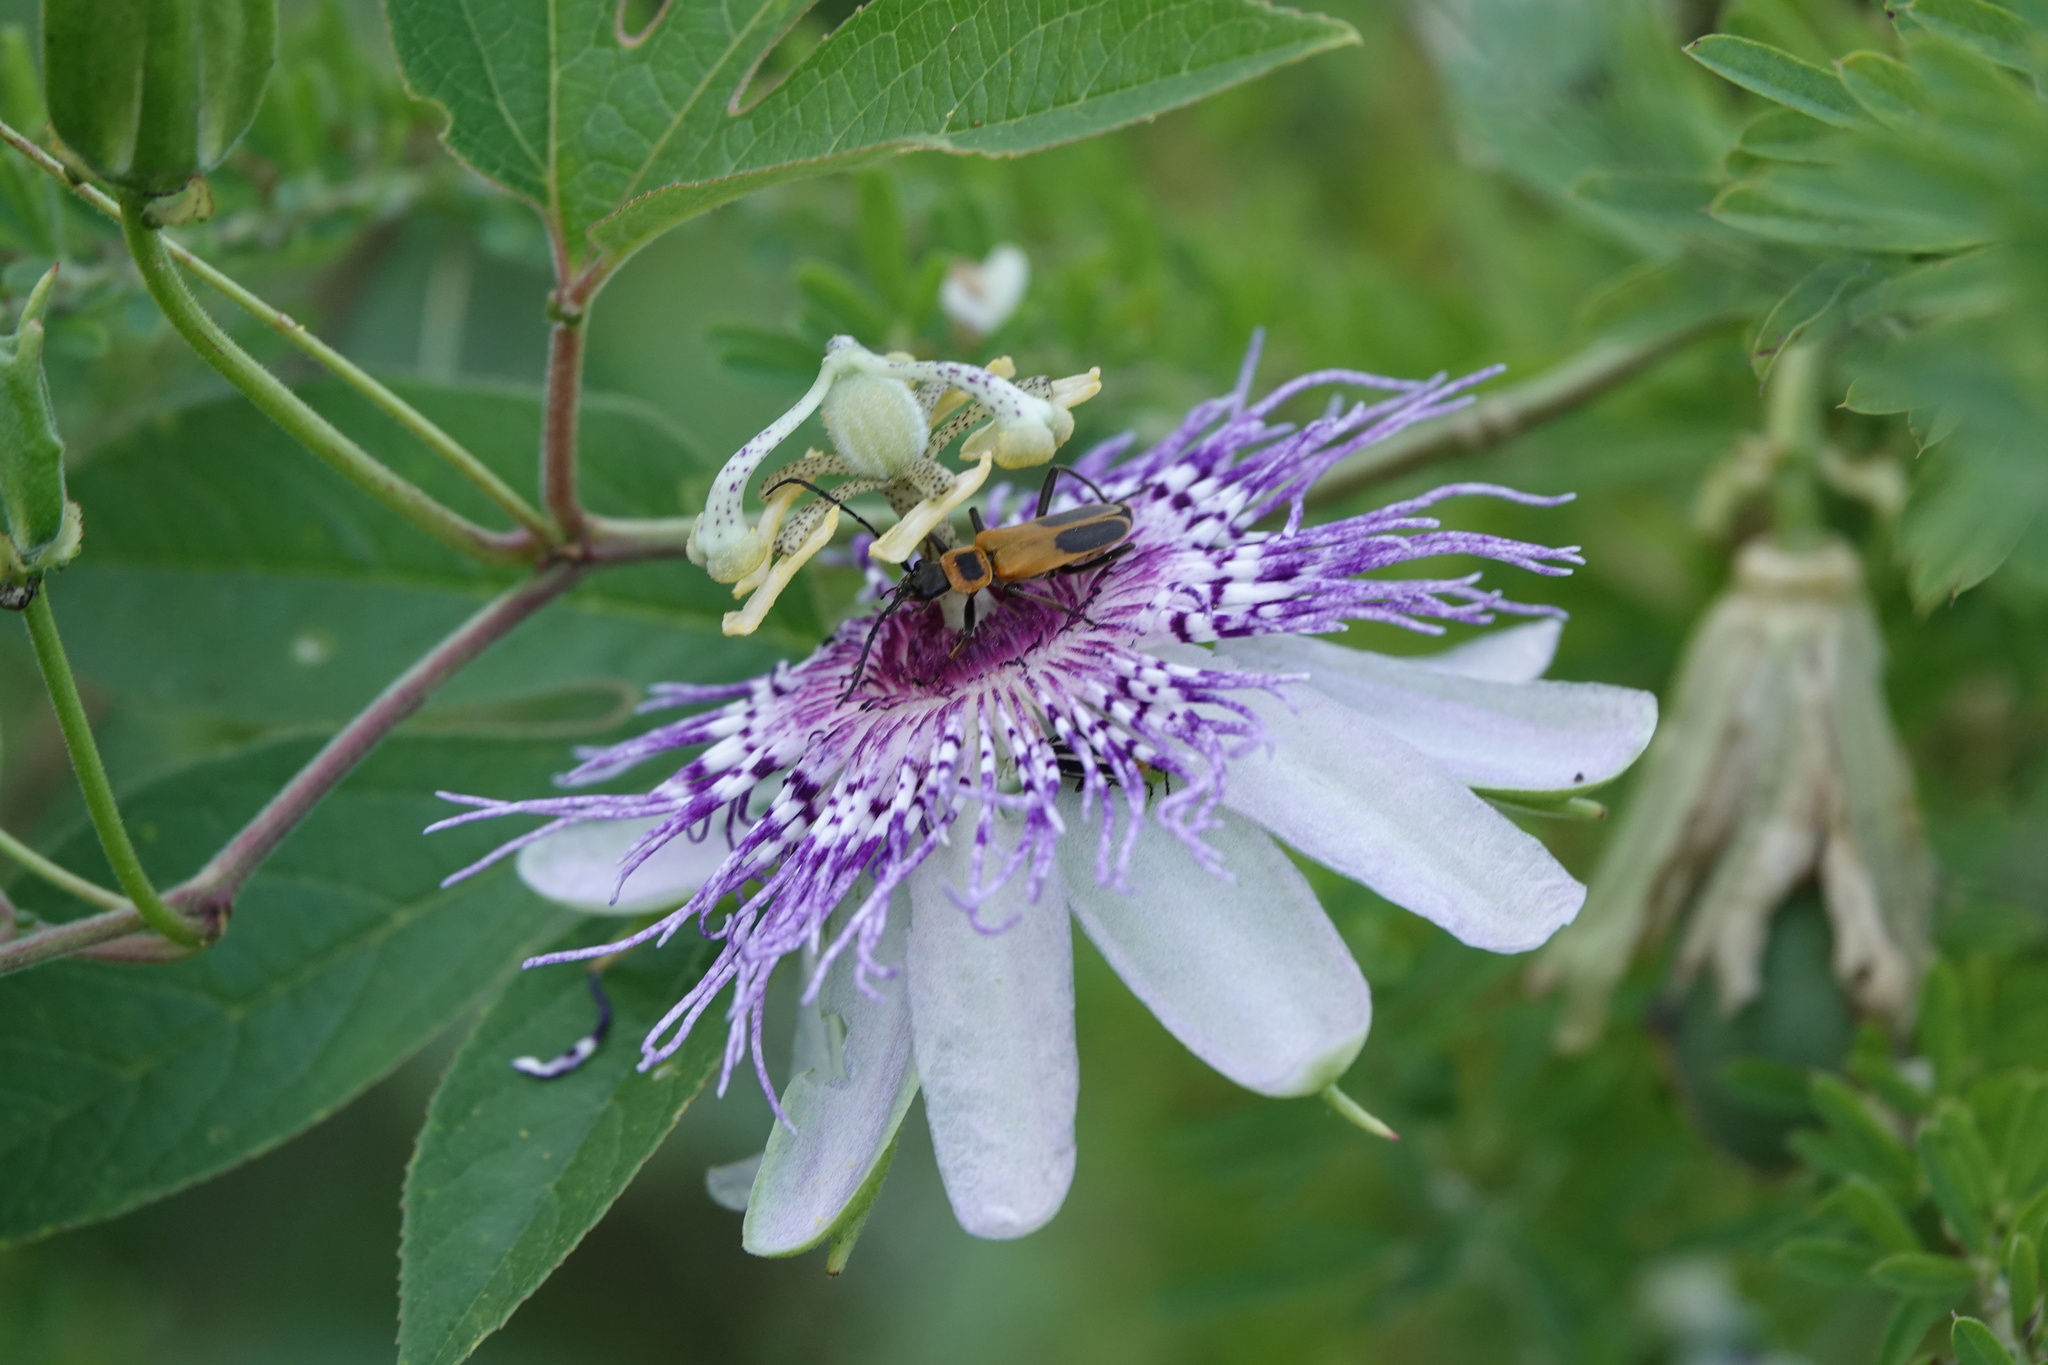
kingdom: Animalia
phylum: Arthropoda
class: Insecta
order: Coleoptera
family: Cantharidae
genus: Chauliognathus
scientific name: Chauliognathus pensylvanicus
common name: Goldenrod soldier beetle
